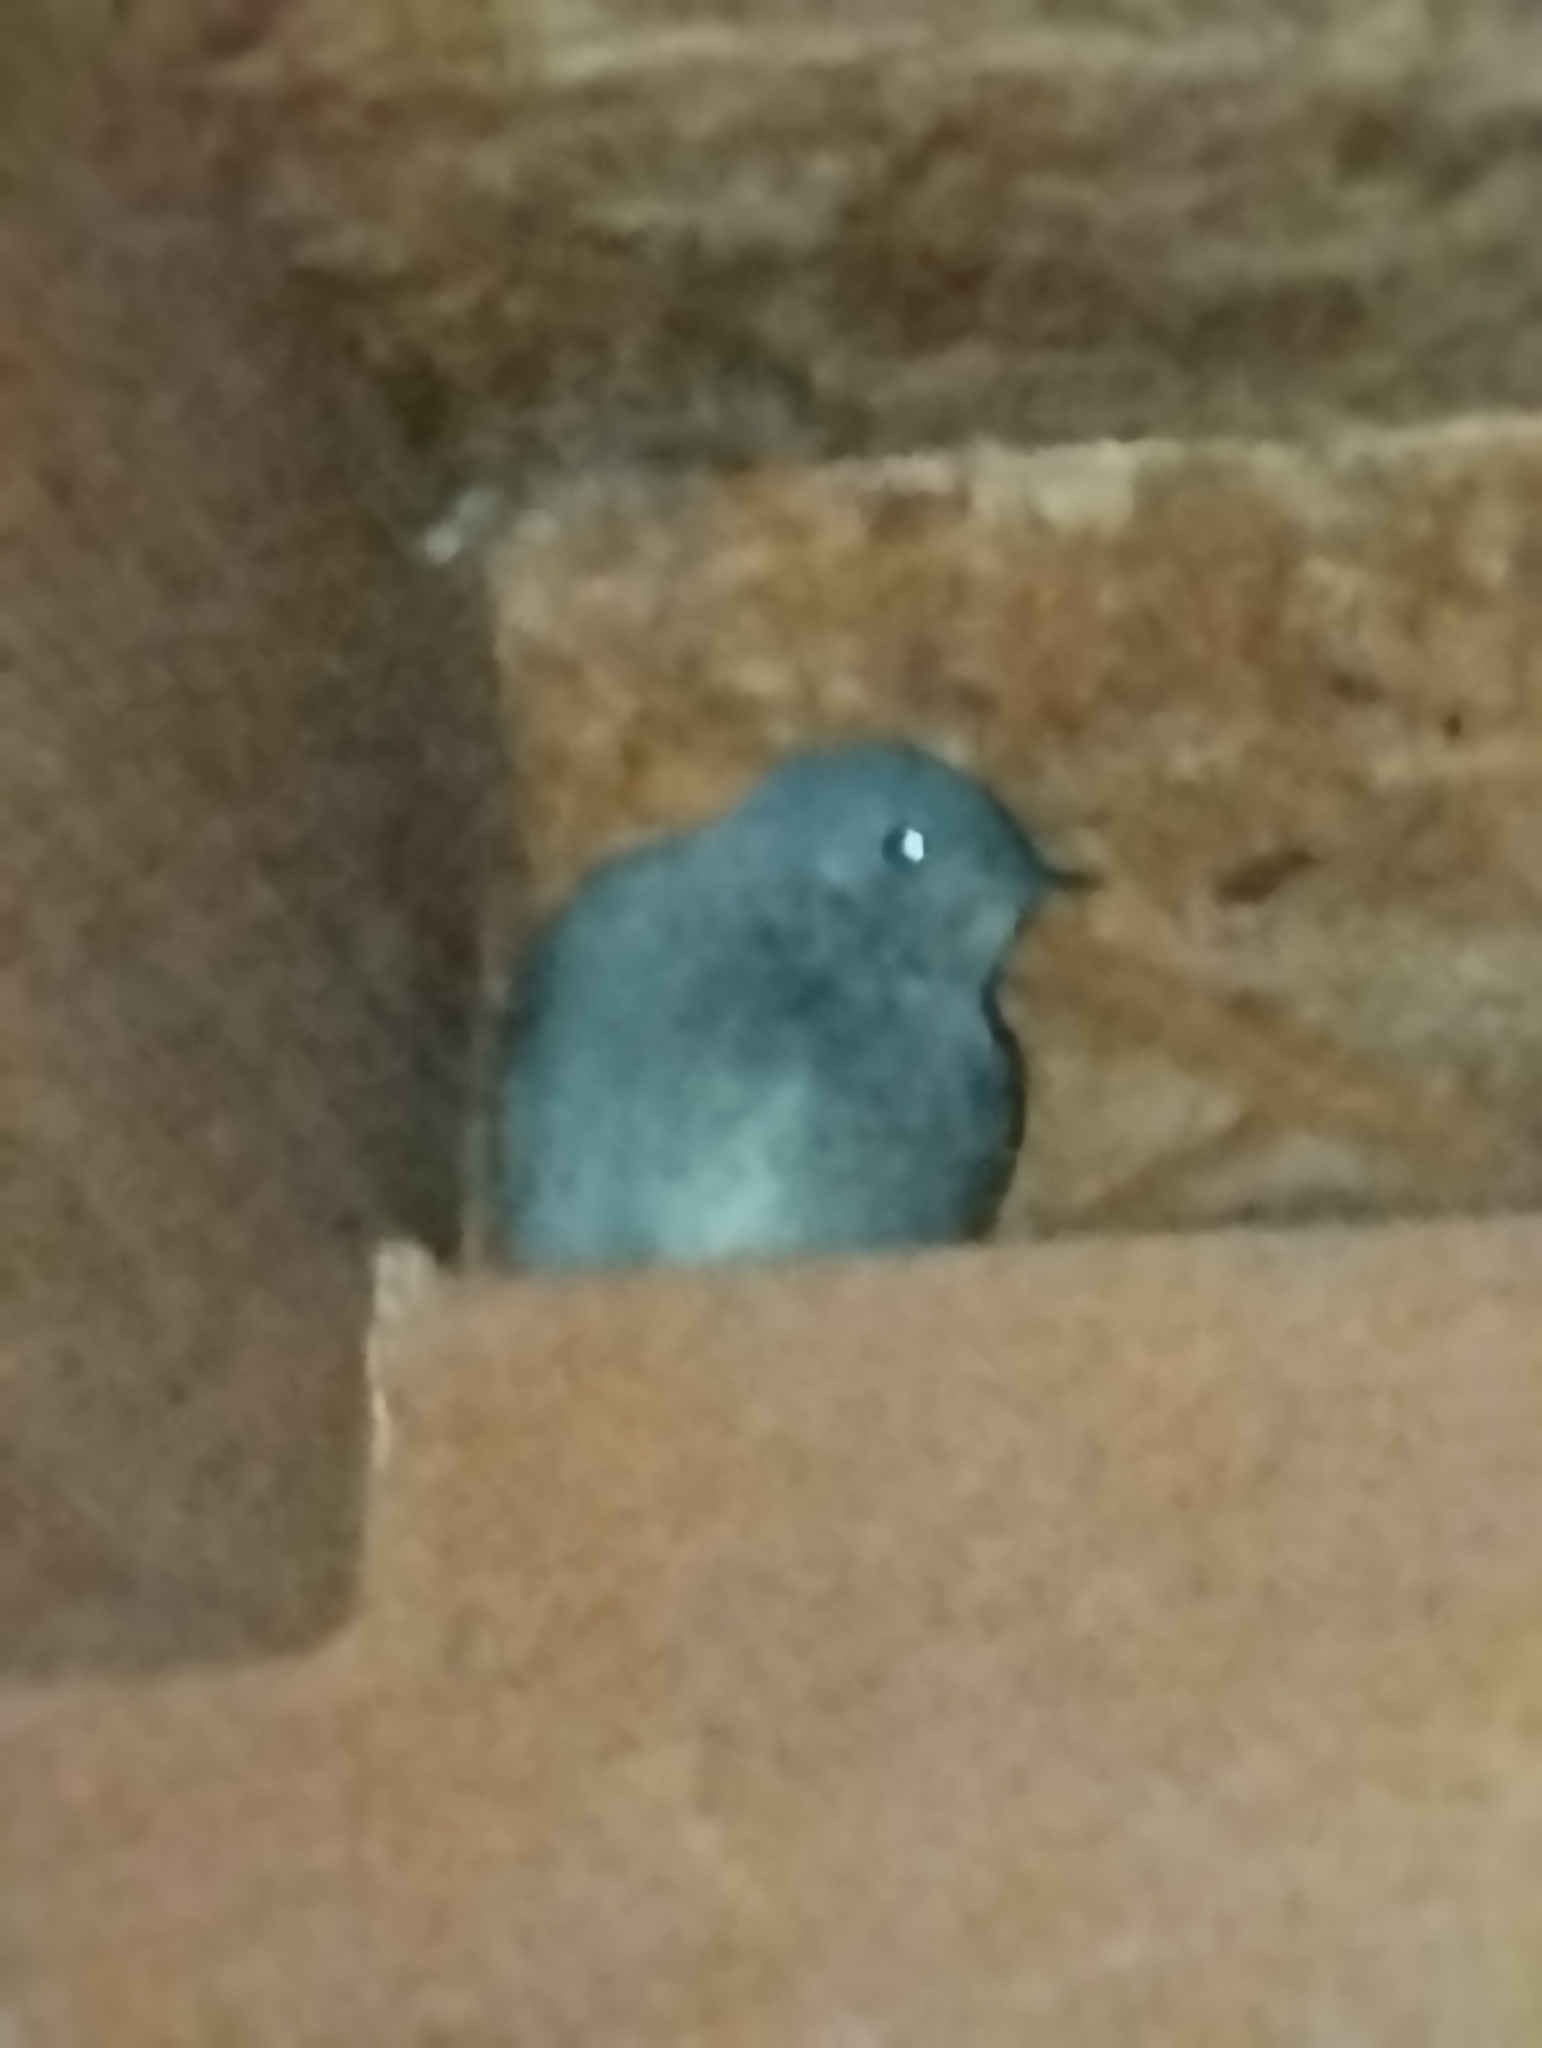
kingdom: Animalia
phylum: Chordata
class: Aves
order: Passeriformes
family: Muscicapidae
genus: Phoenicurus
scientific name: Phoenicurus ochruros
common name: Black redstart
